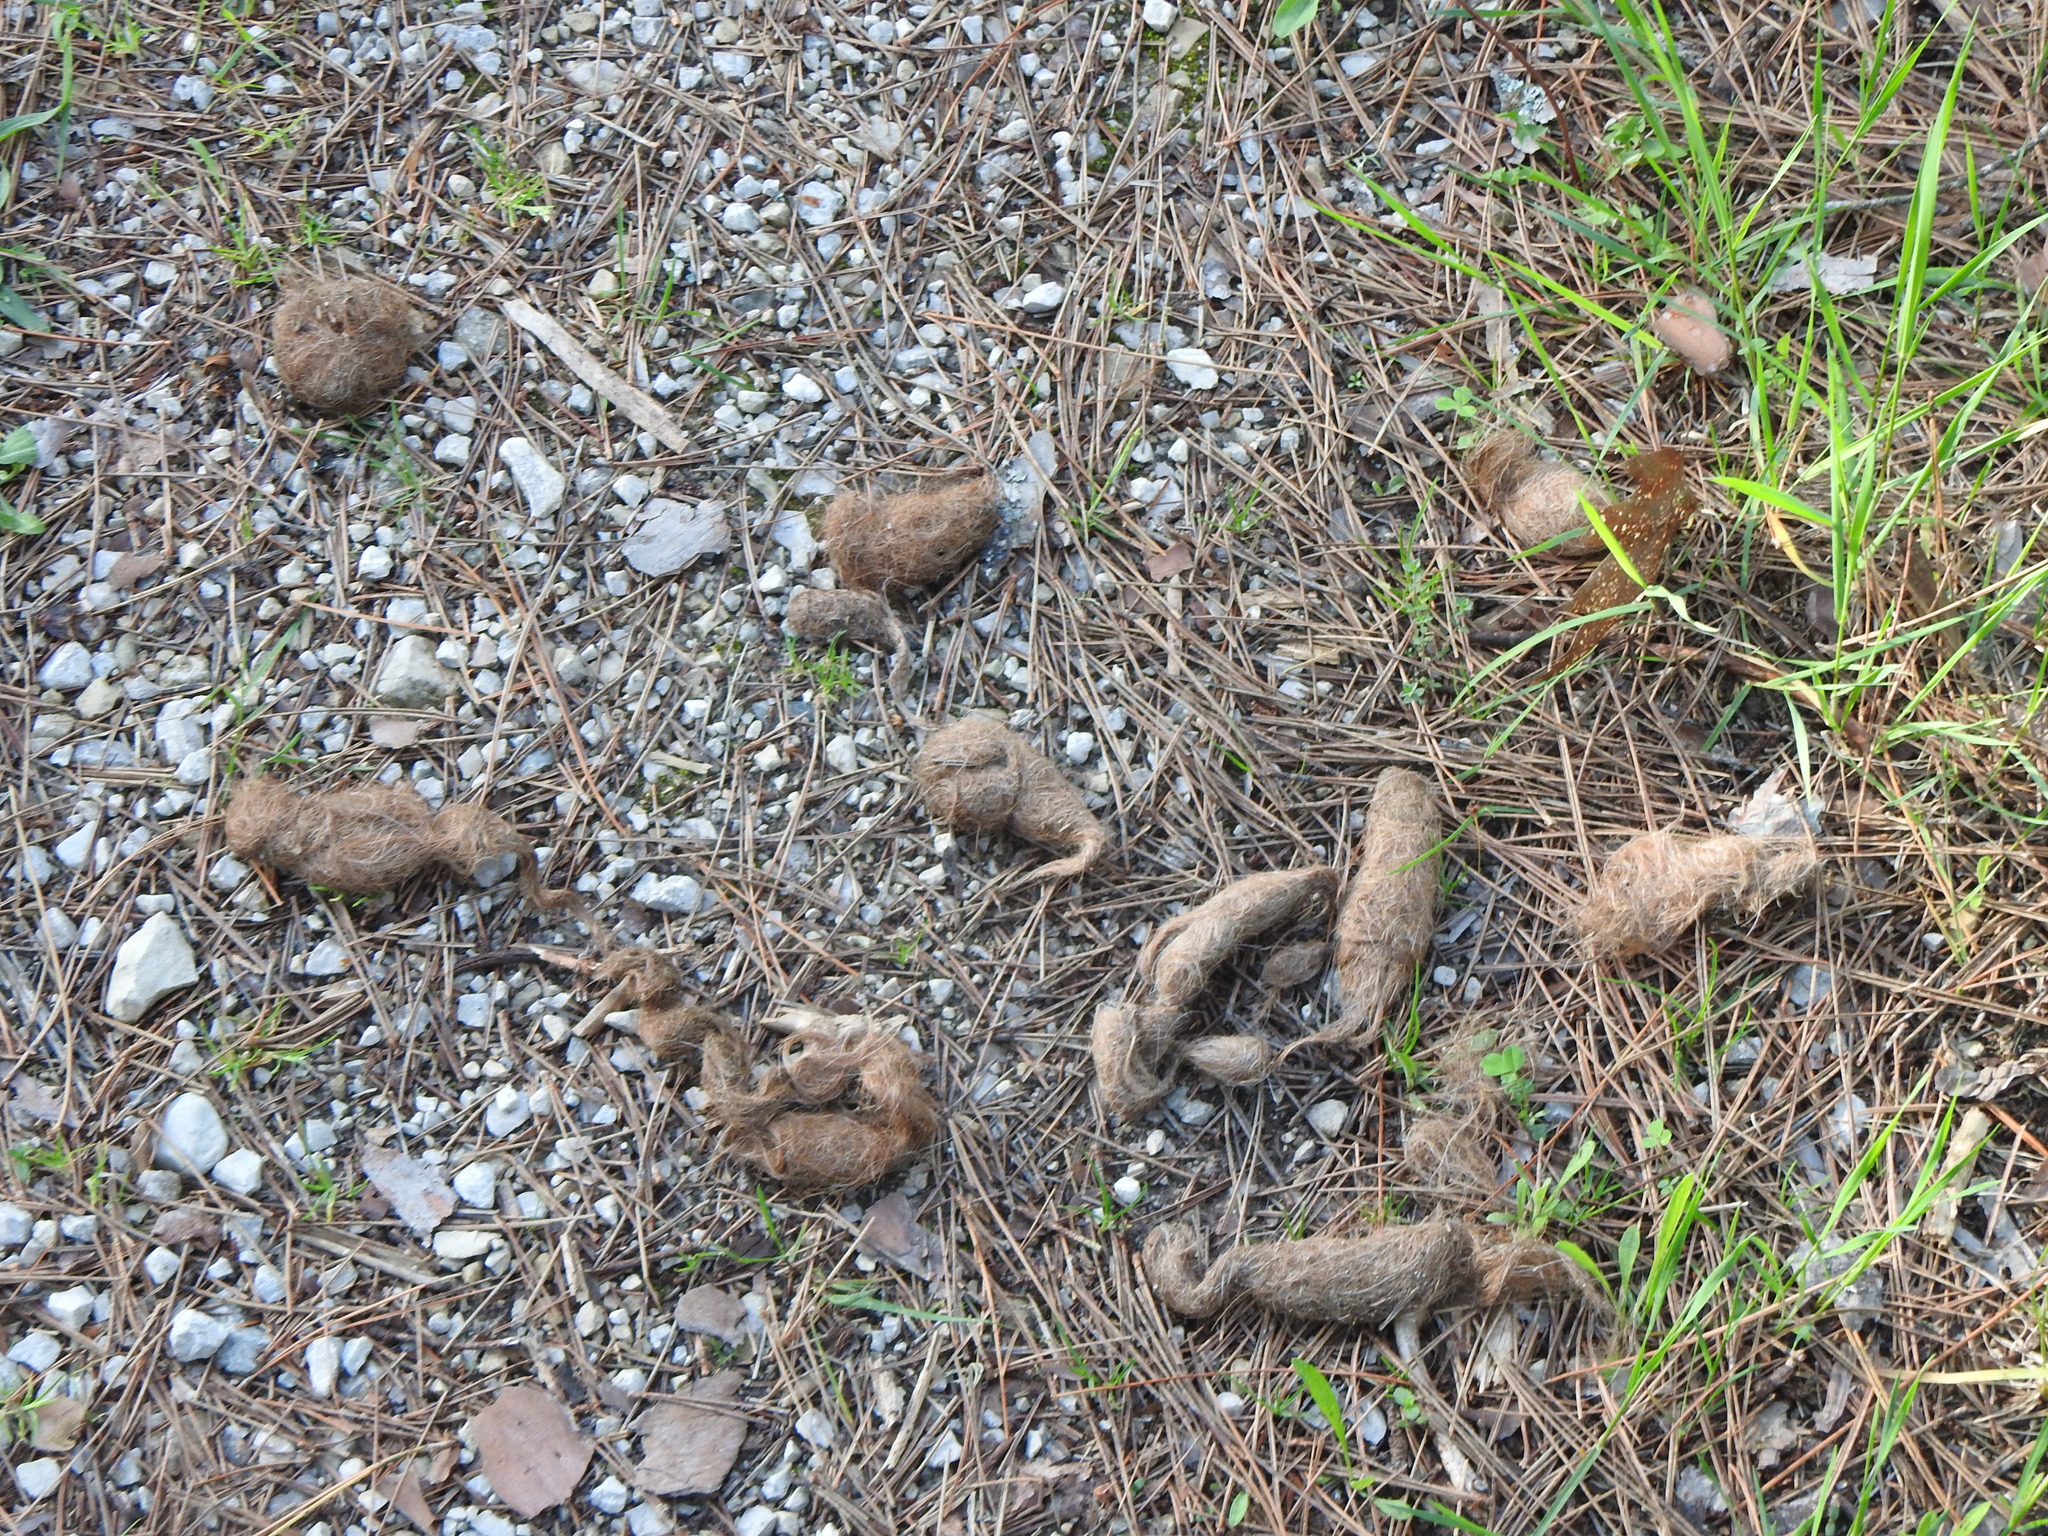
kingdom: Animalia
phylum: Chordata
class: Mammalia
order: Carnivora
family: Canidae
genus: Canis
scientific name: Canis latrans
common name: Coyote
